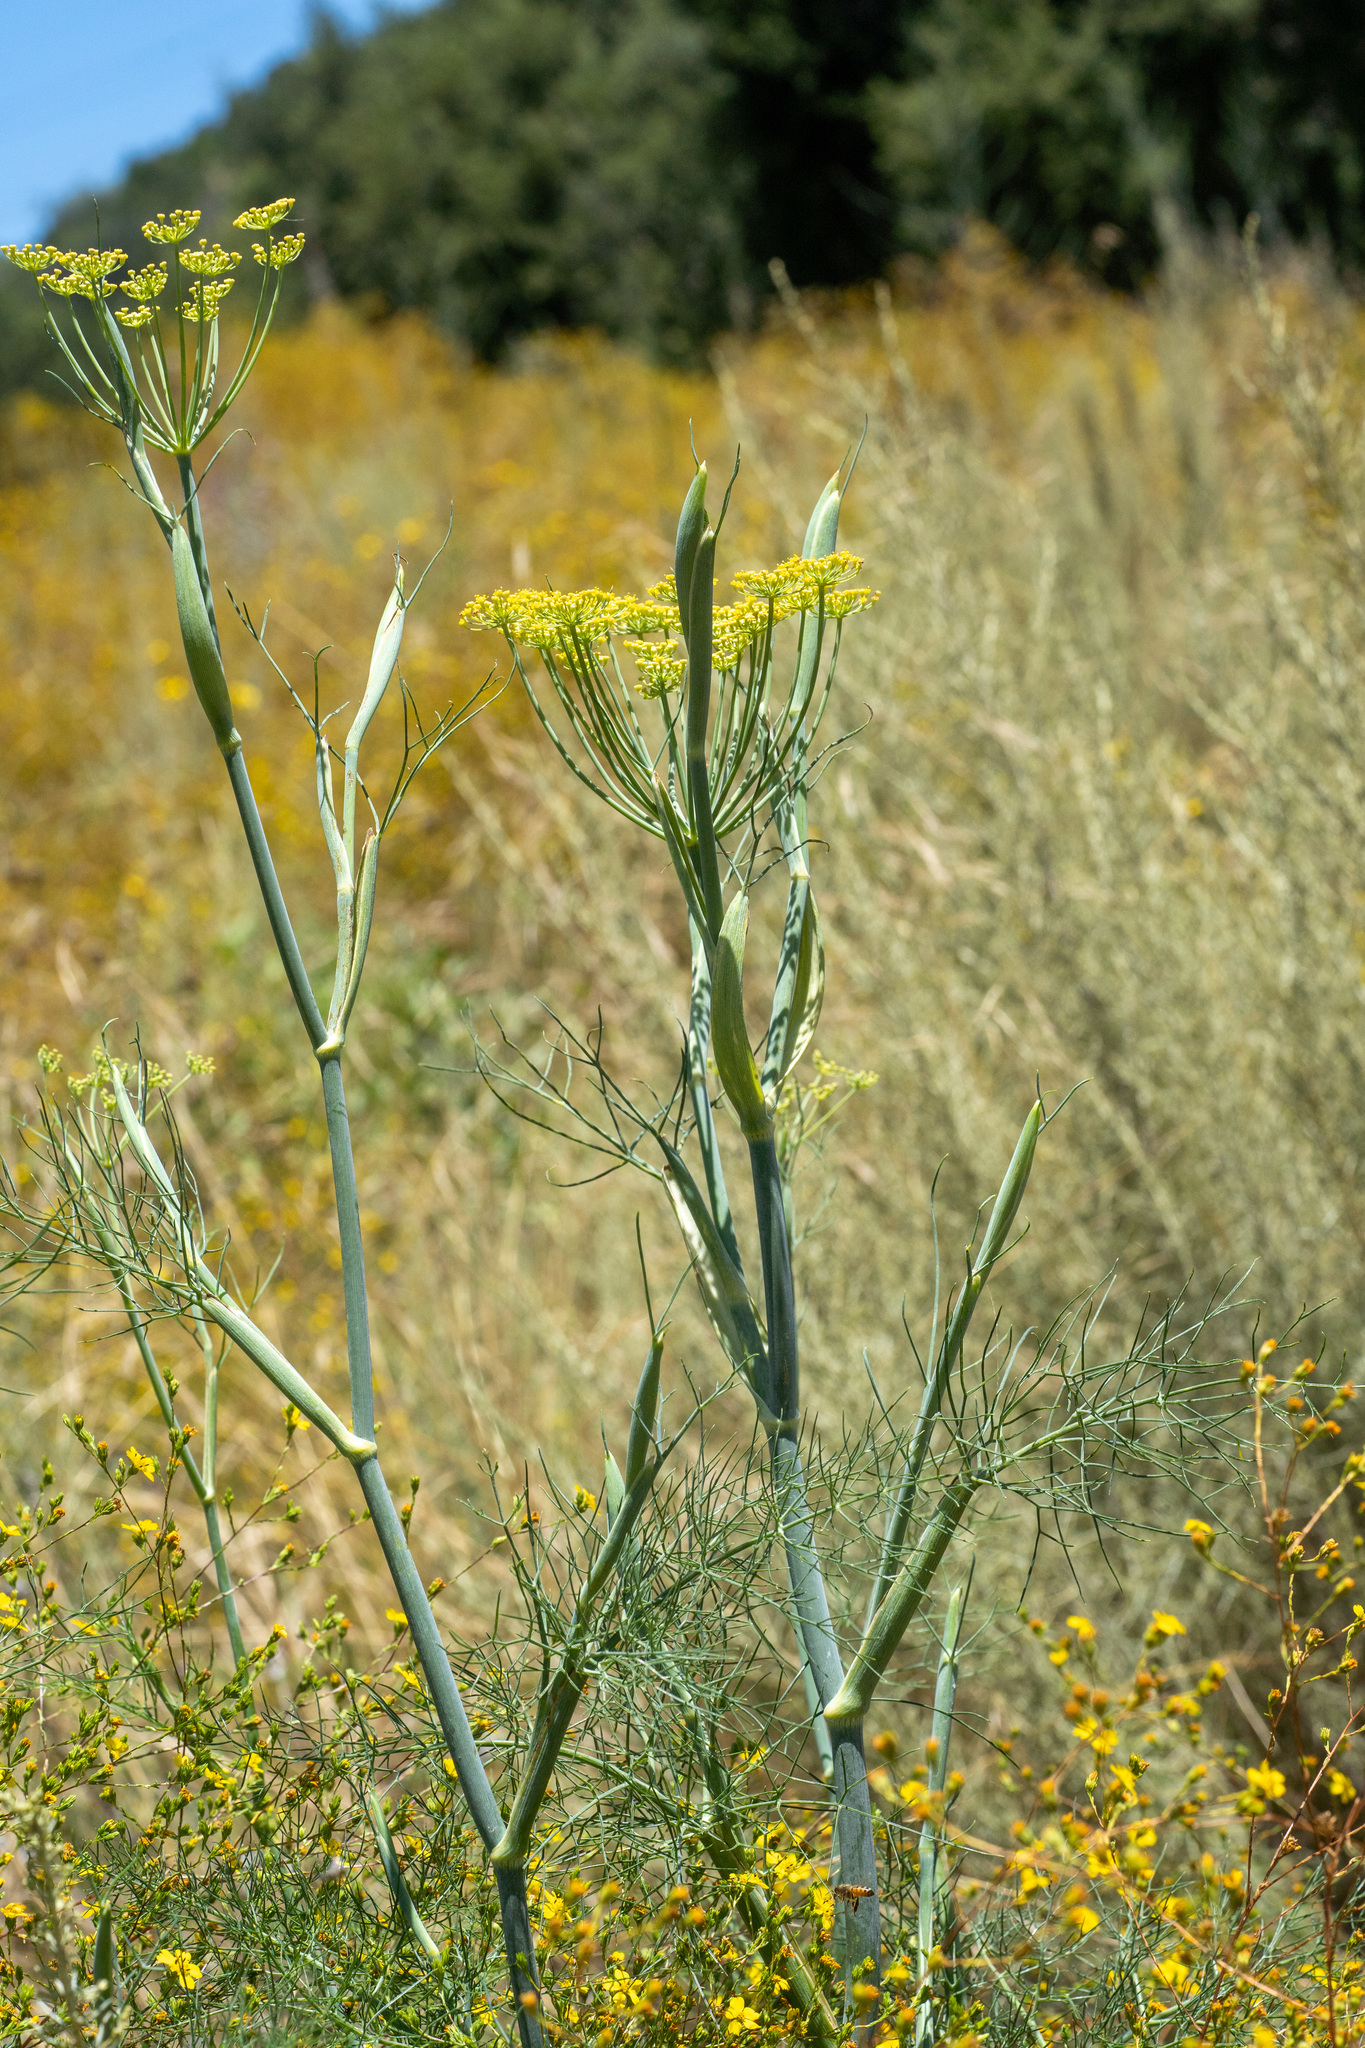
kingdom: Plantae
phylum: Tracheophyta
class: Magnoliopsida
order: Apiales
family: Apiaceae
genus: Foeniculum
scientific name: Foeniculum vulgare
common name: Fennel
